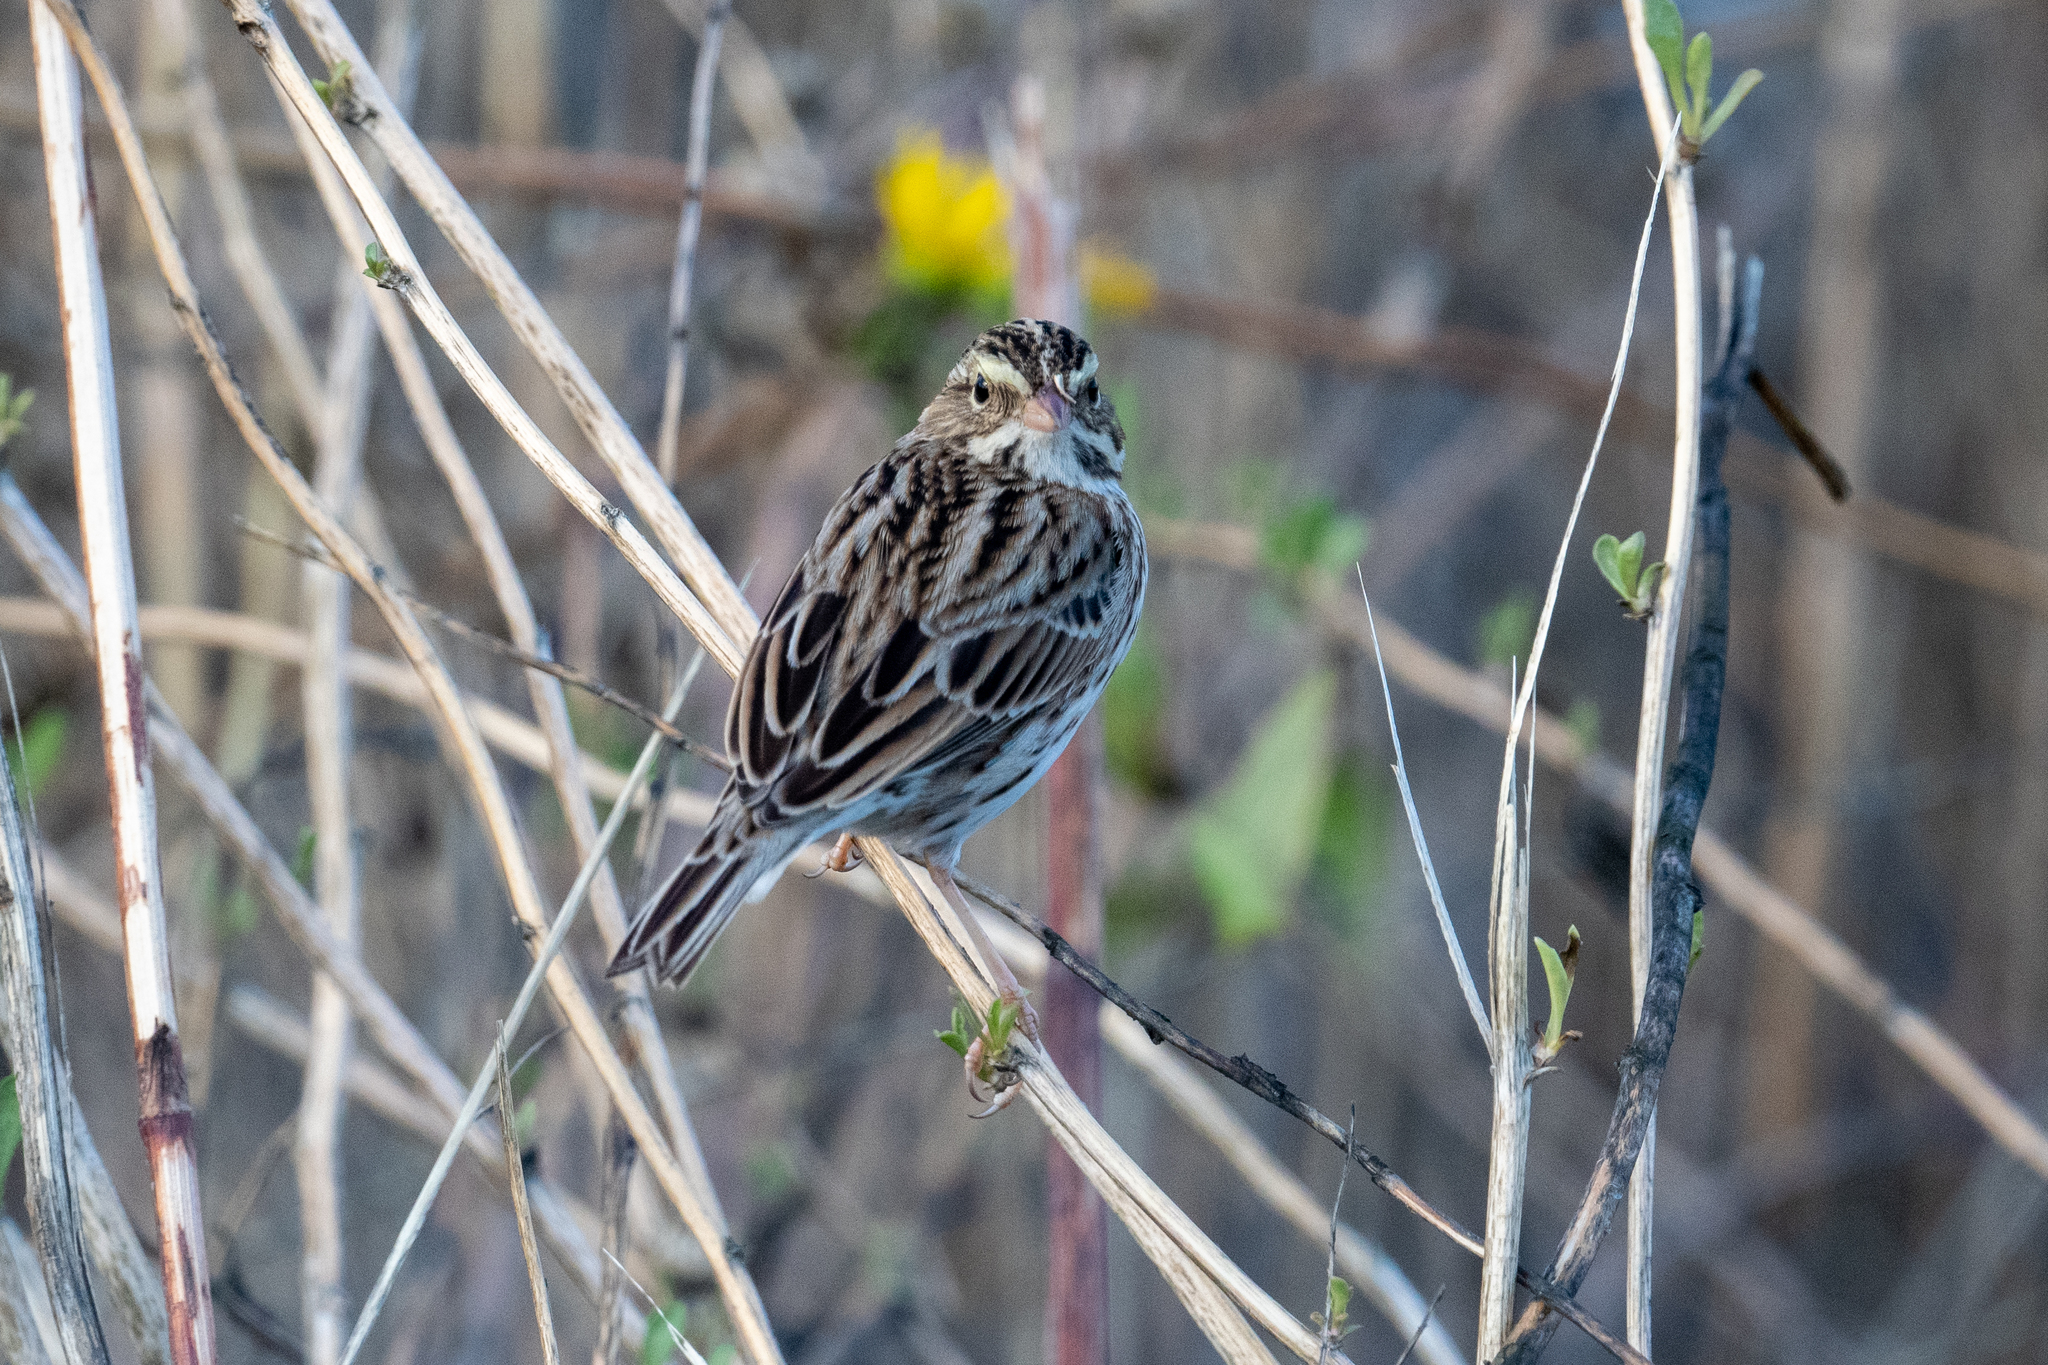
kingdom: Animalia
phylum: Chordata
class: Aves
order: Passeriformes
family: Passerellidae
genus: Passerculus
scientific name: Passerculus sandwichensis
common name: Savannah sparrow
